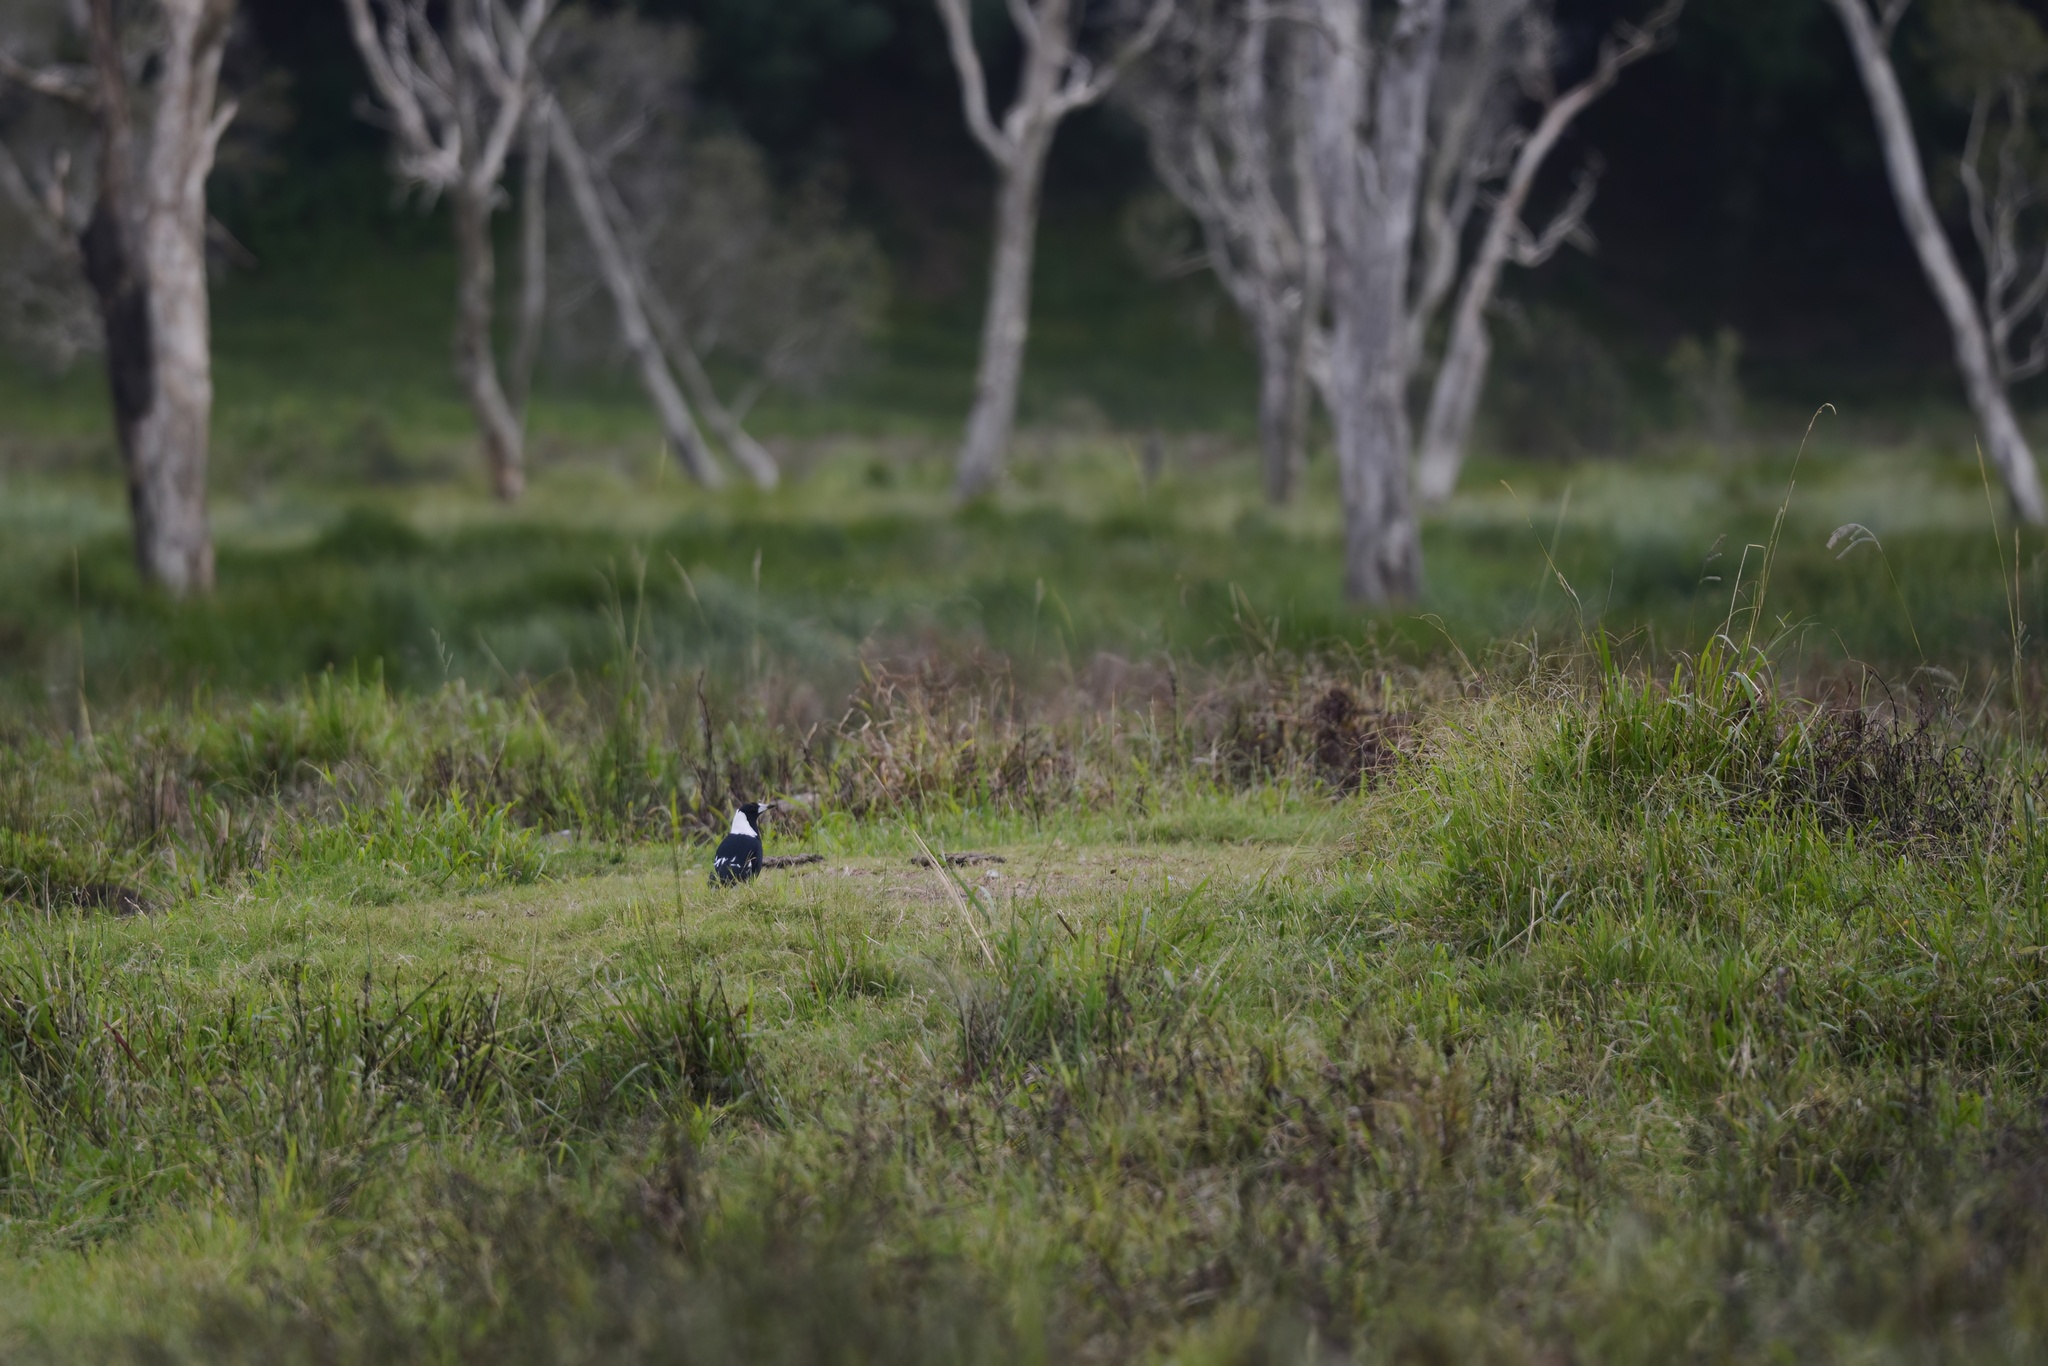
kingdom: Animalia
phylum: Chordata
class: Aves
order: Passeriformes
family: Cracticidae
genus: Gymnorhina
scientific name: Gymnorhina tibicen
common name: Australian magpie
